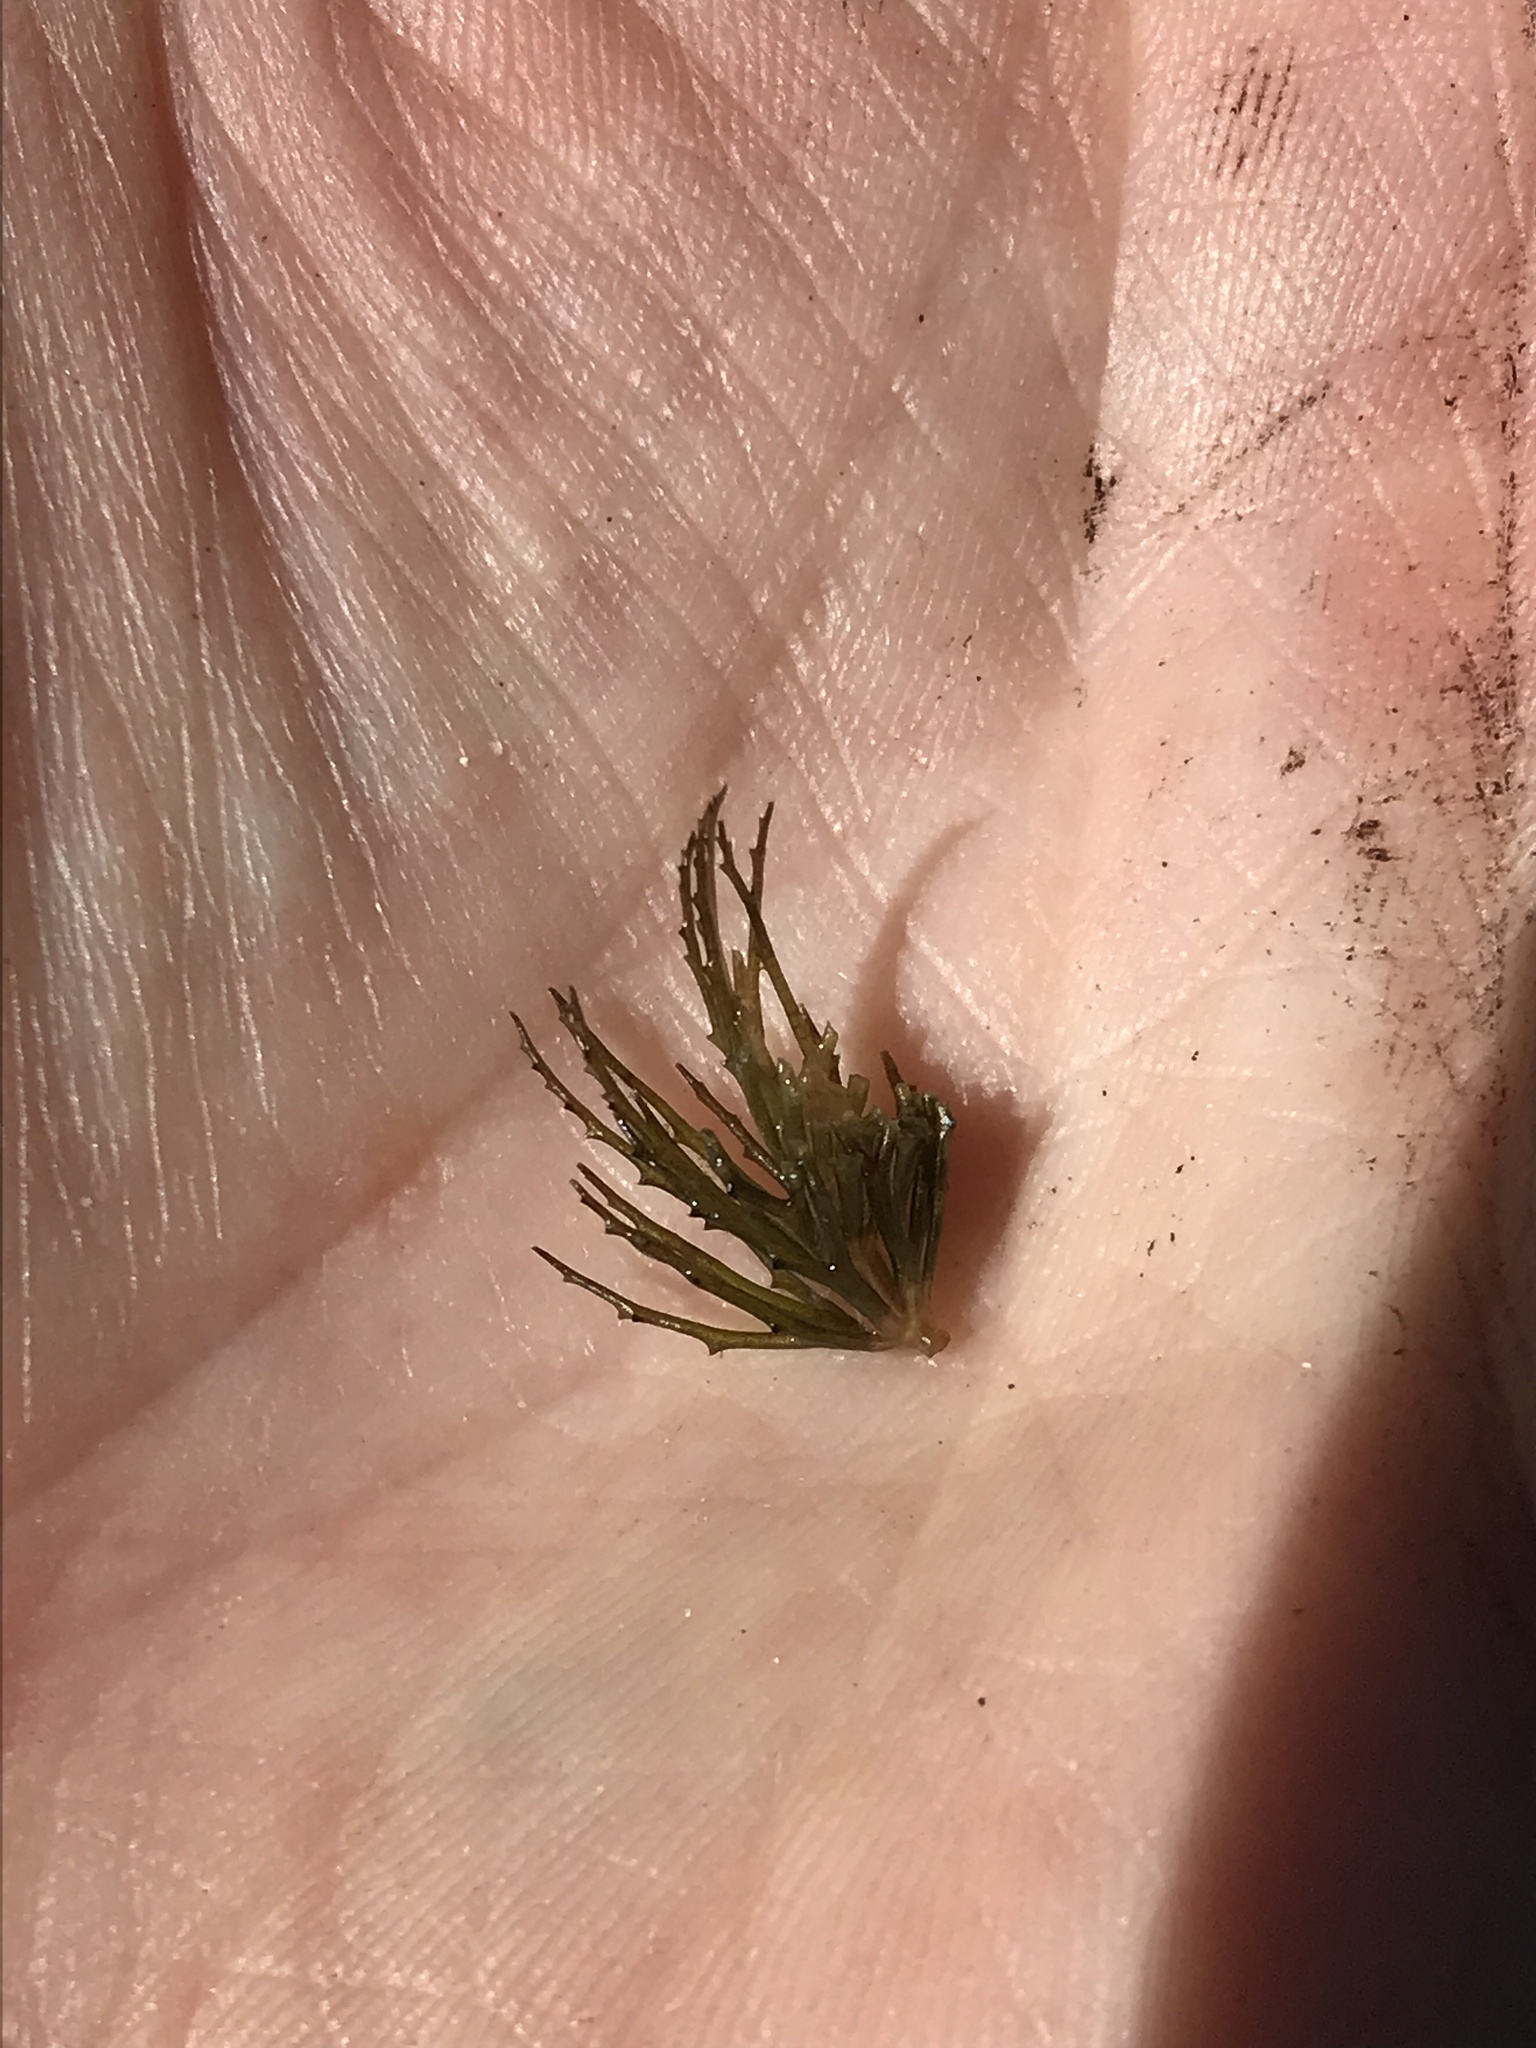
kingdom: Plantae
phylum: Tracheophyta
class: Magnoliopsida
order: Ceratophyllales
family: Ceratophyllaceae
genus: Ceratophyllum
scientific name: Ceratophyllum demersum
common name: Rigid hornwort
